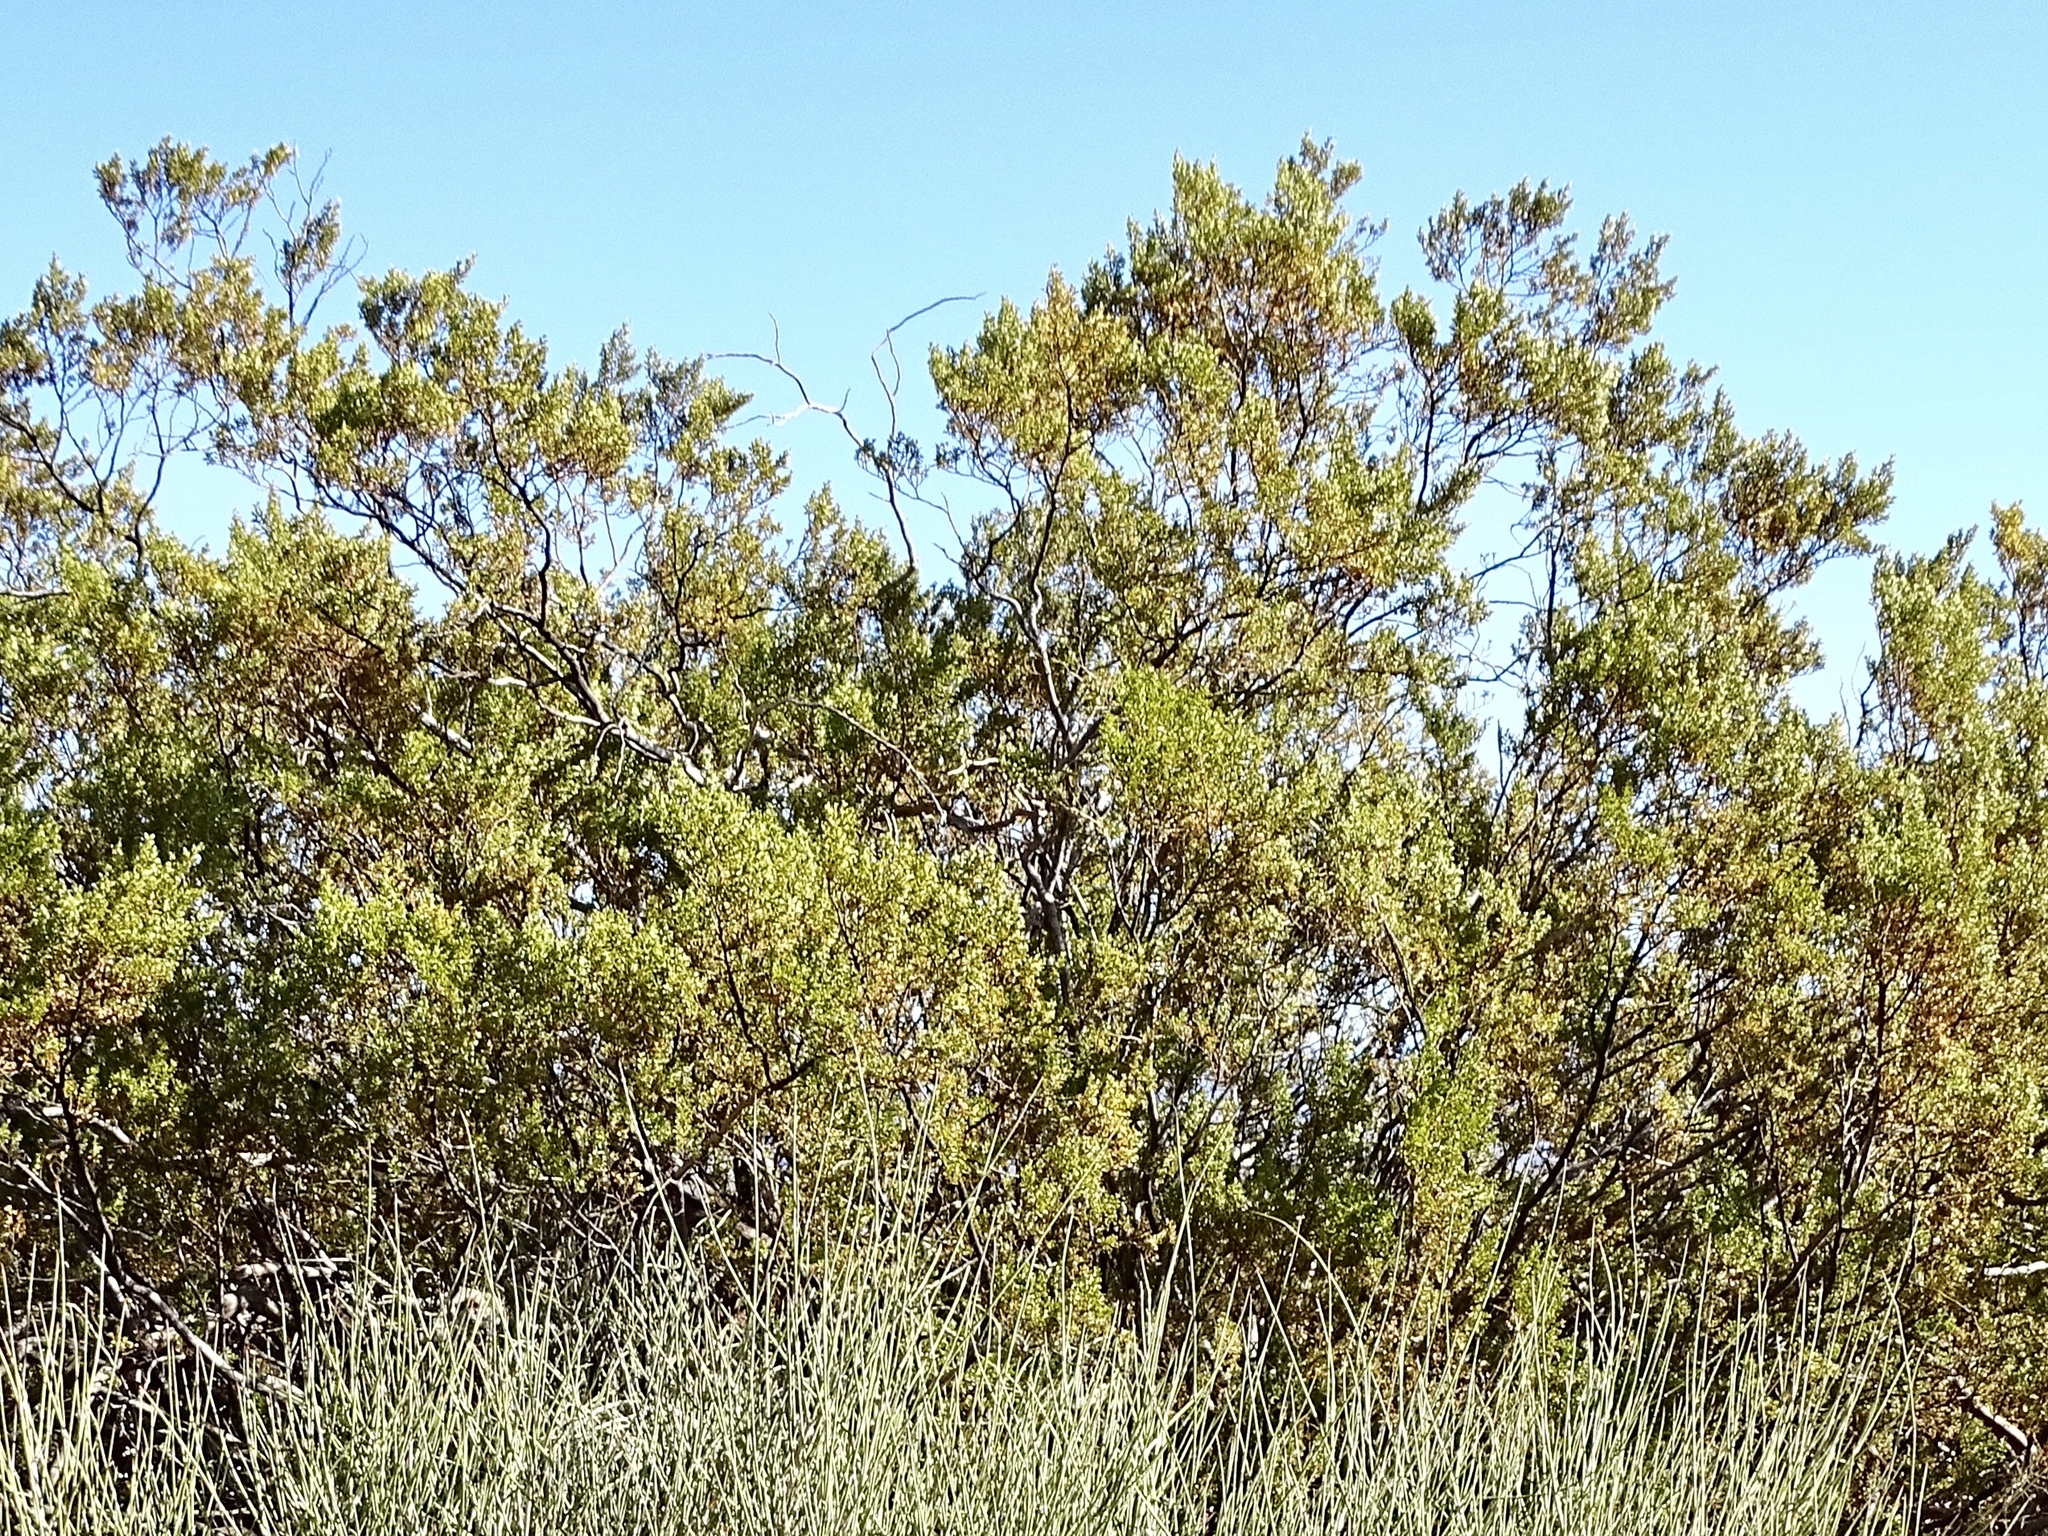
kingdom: Plantae
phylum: Tracheophyta
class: Magnoliopsida
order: Zygophyllales
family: Zygophyllaceae
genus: Larrea
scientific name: Larrea tridentata
